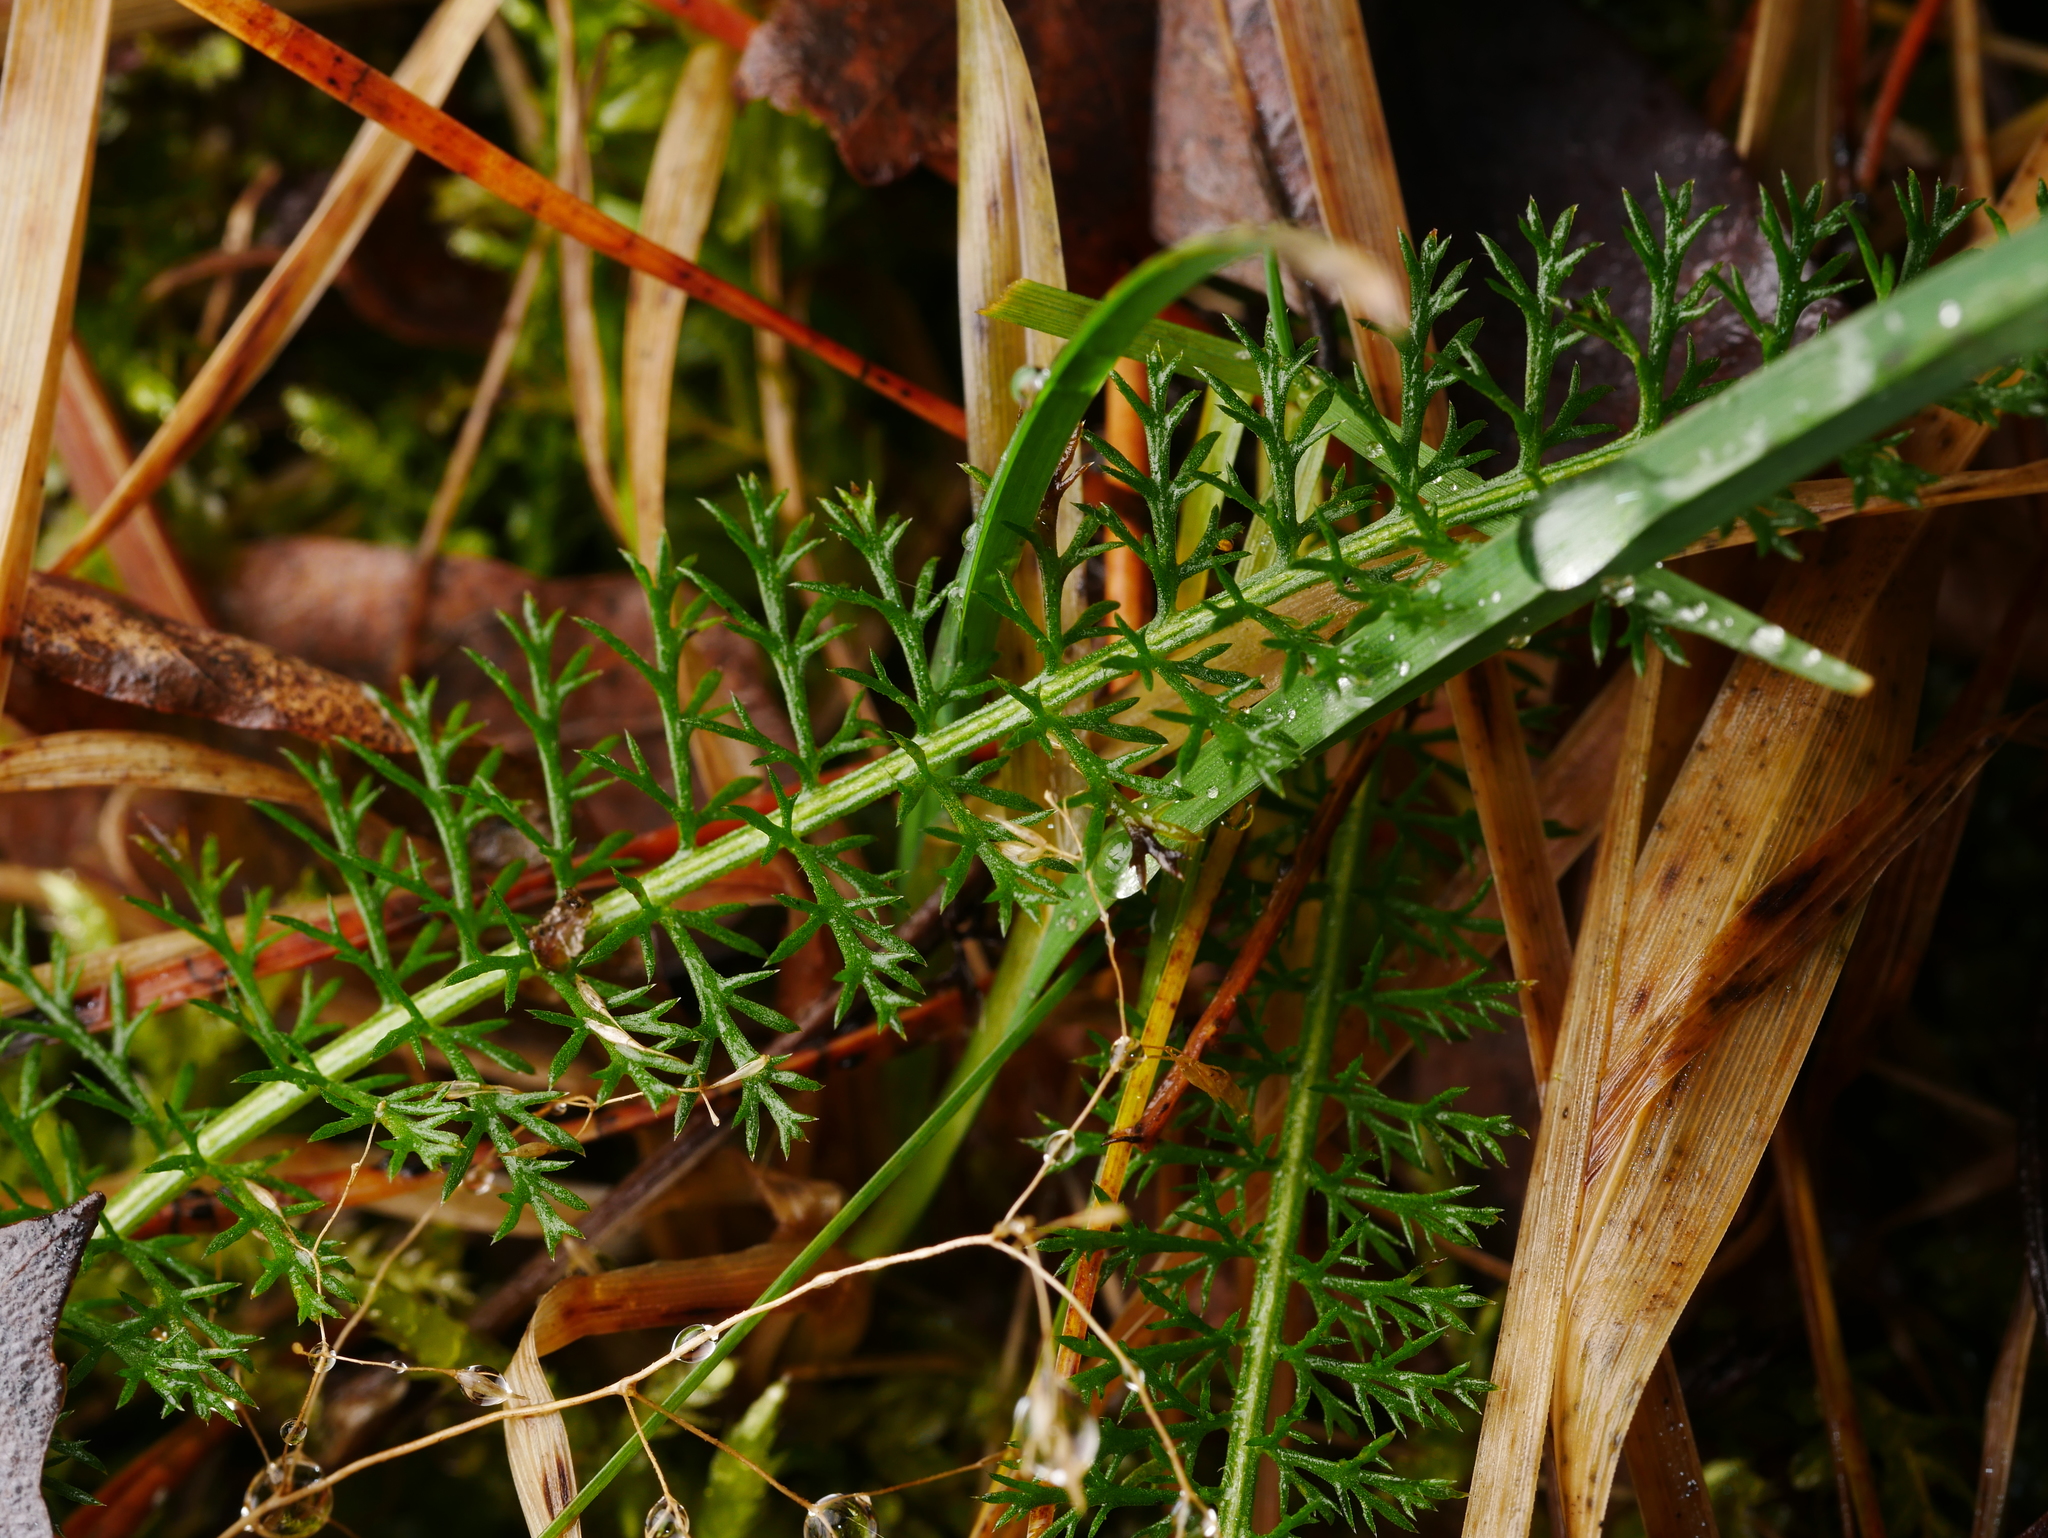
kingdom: Plantae
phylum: Tracheophyta
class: Magnoliopsida
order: Asterales
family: Asteraceae
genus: Achillea
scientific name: Achillea millefolium
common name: Yarrow
